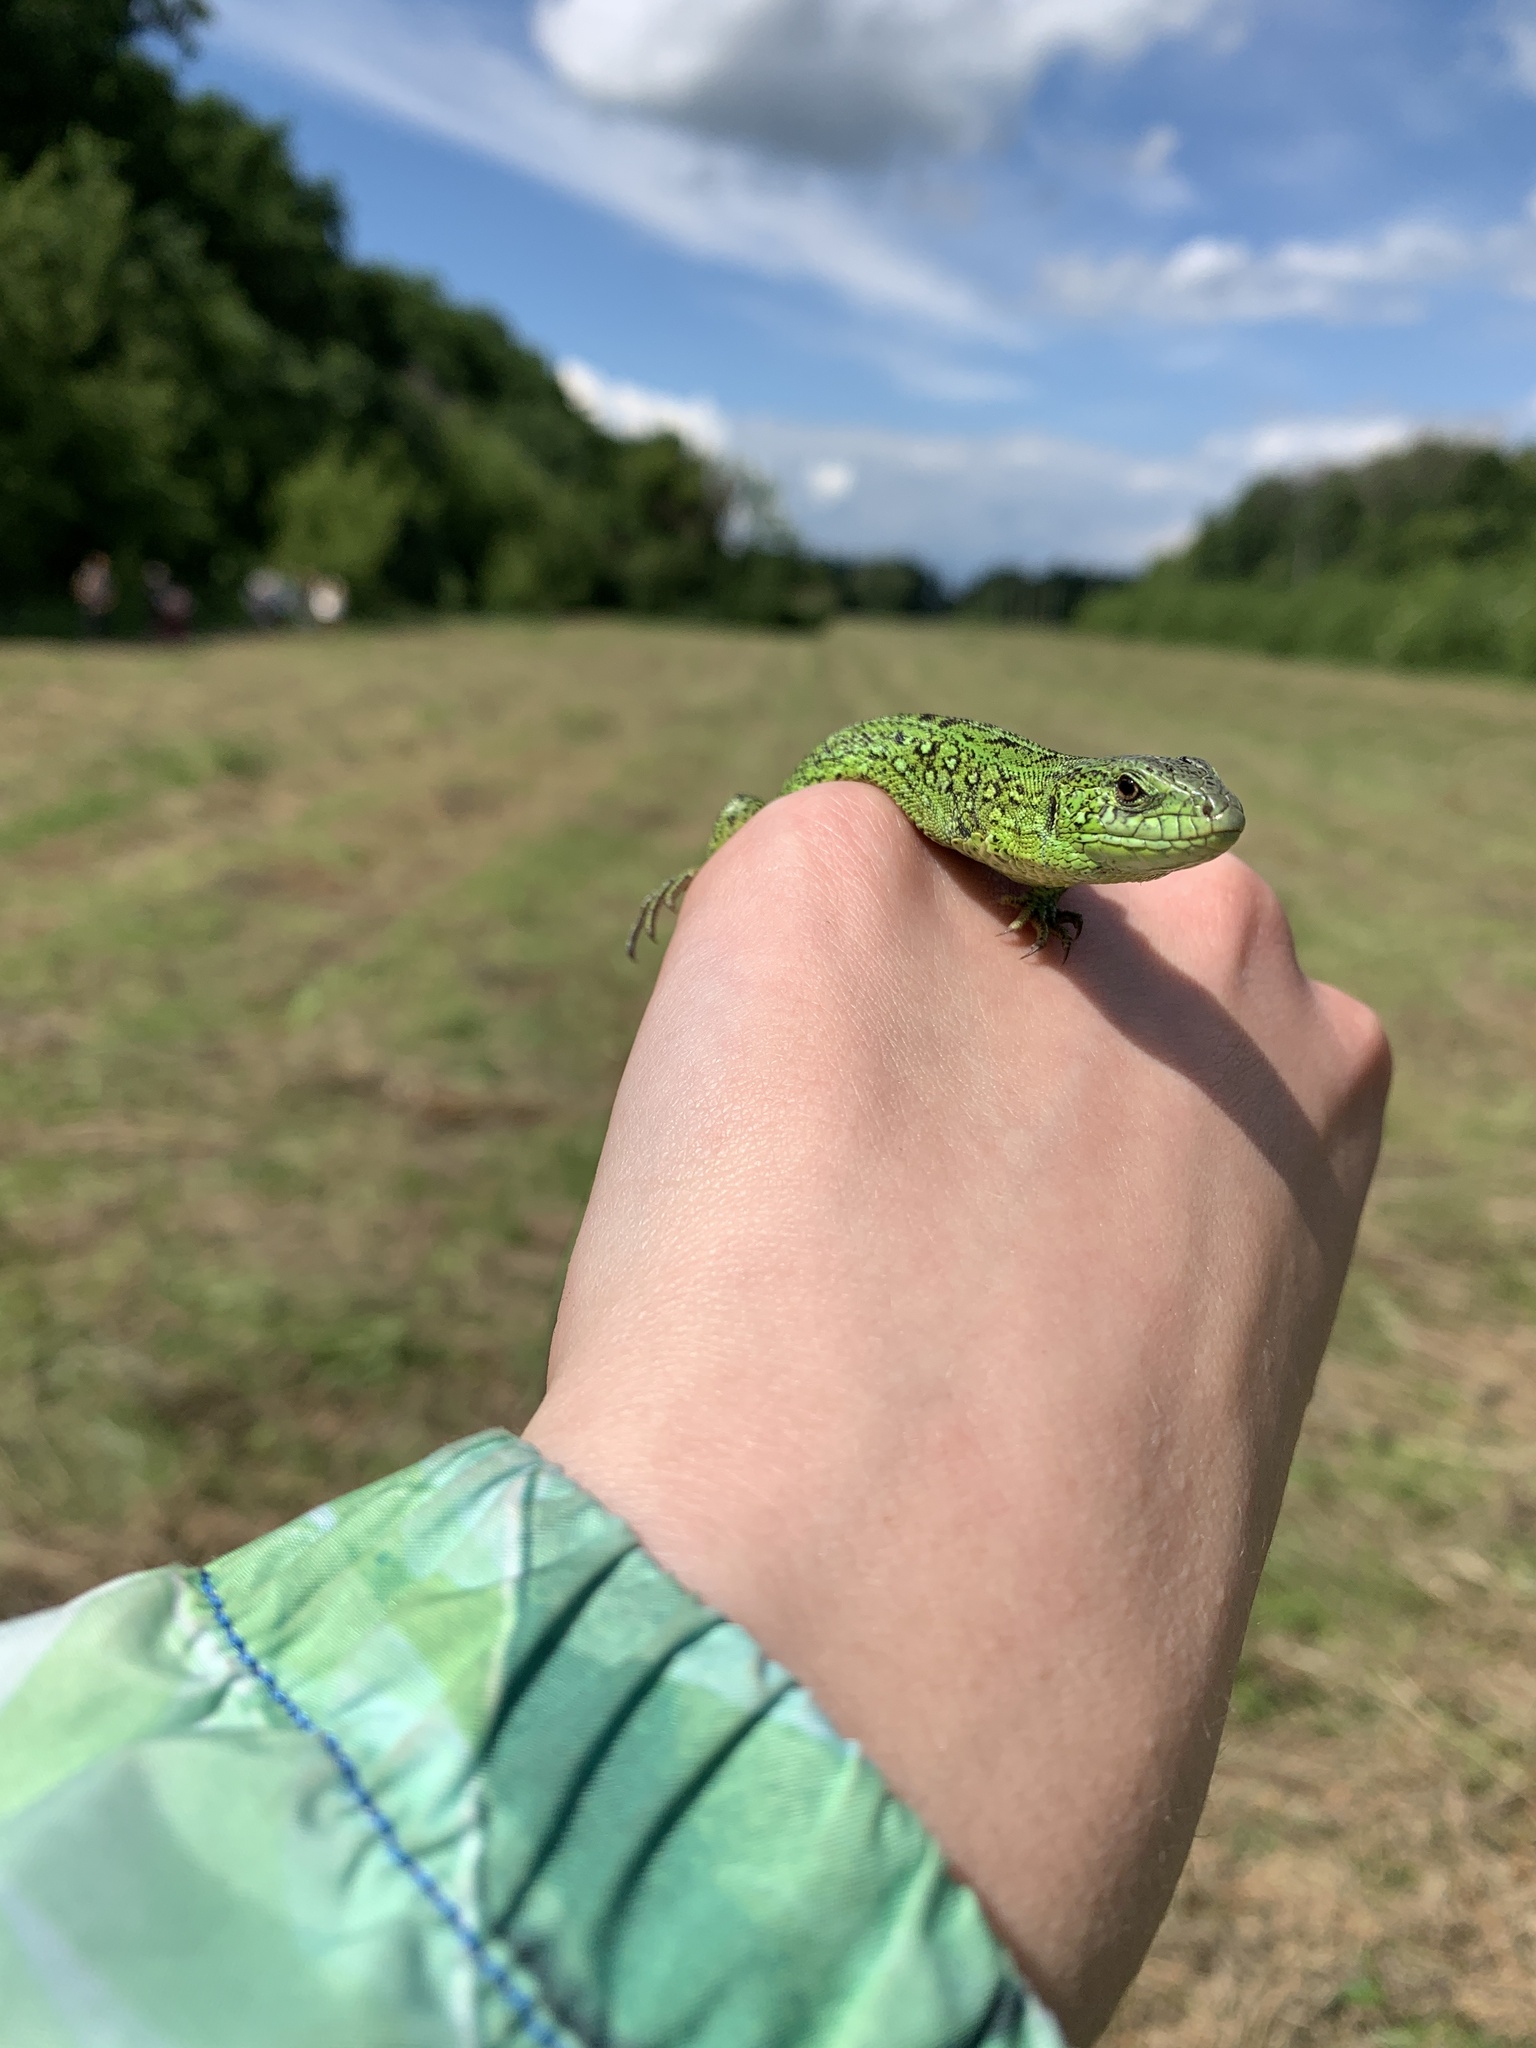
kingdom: Animalia
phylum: Chordata
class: Squamata
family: Lacertidae
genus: Lacerta
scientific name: Lacerta agilis
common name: Sand lizard
